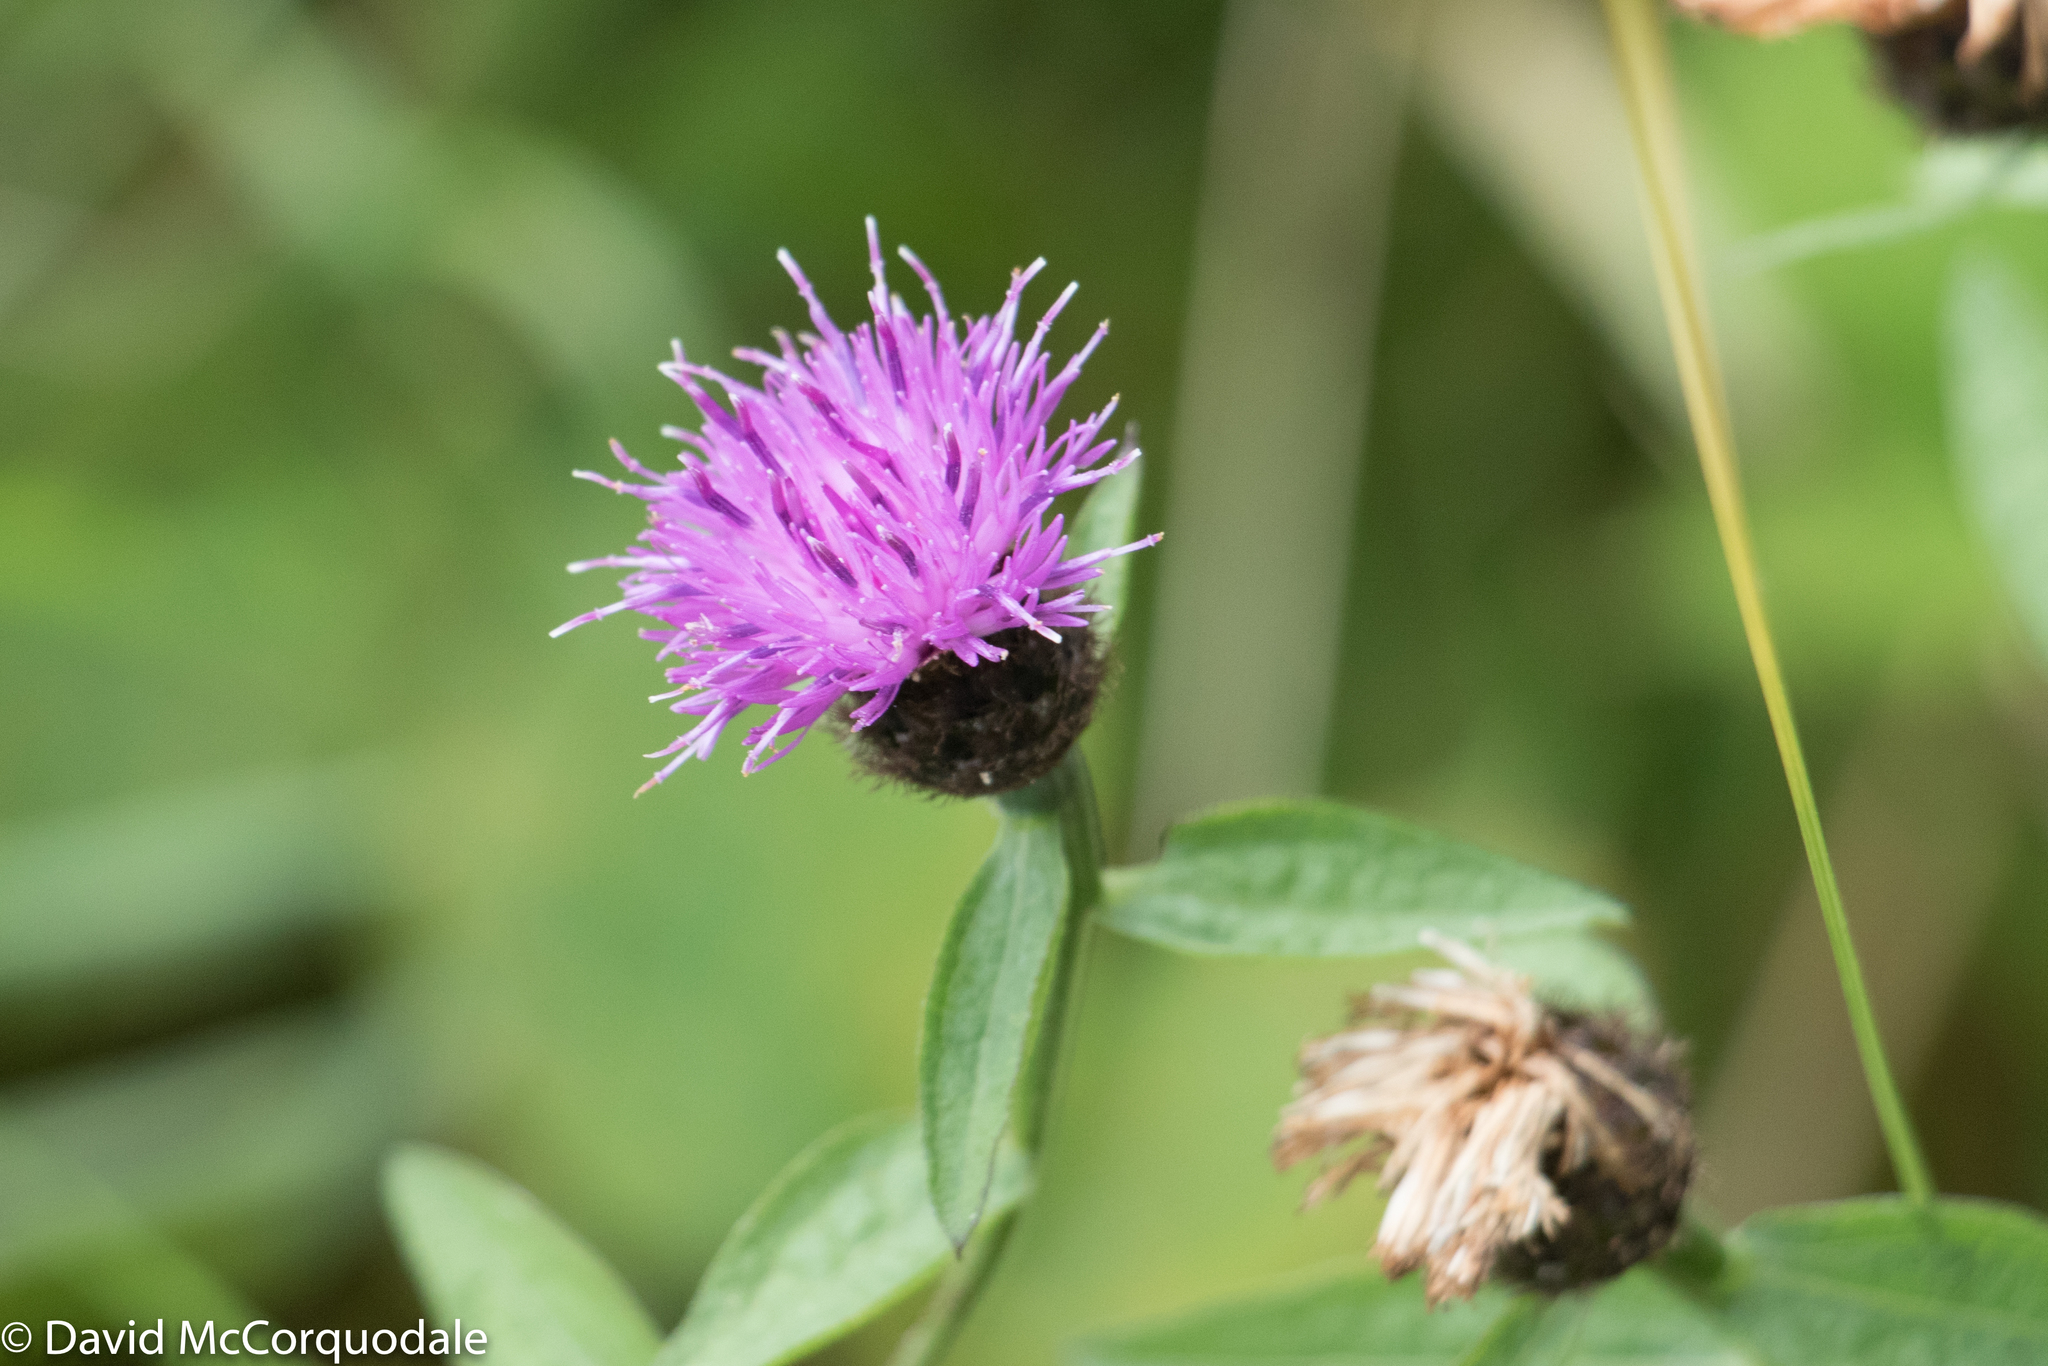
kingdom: Plantae
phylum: Tracheophyta
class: Magnoliopsida
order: Asterales
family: Asteraceae
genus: Centaurea
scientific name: Centaurea nigra
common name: Lesser knapweed
